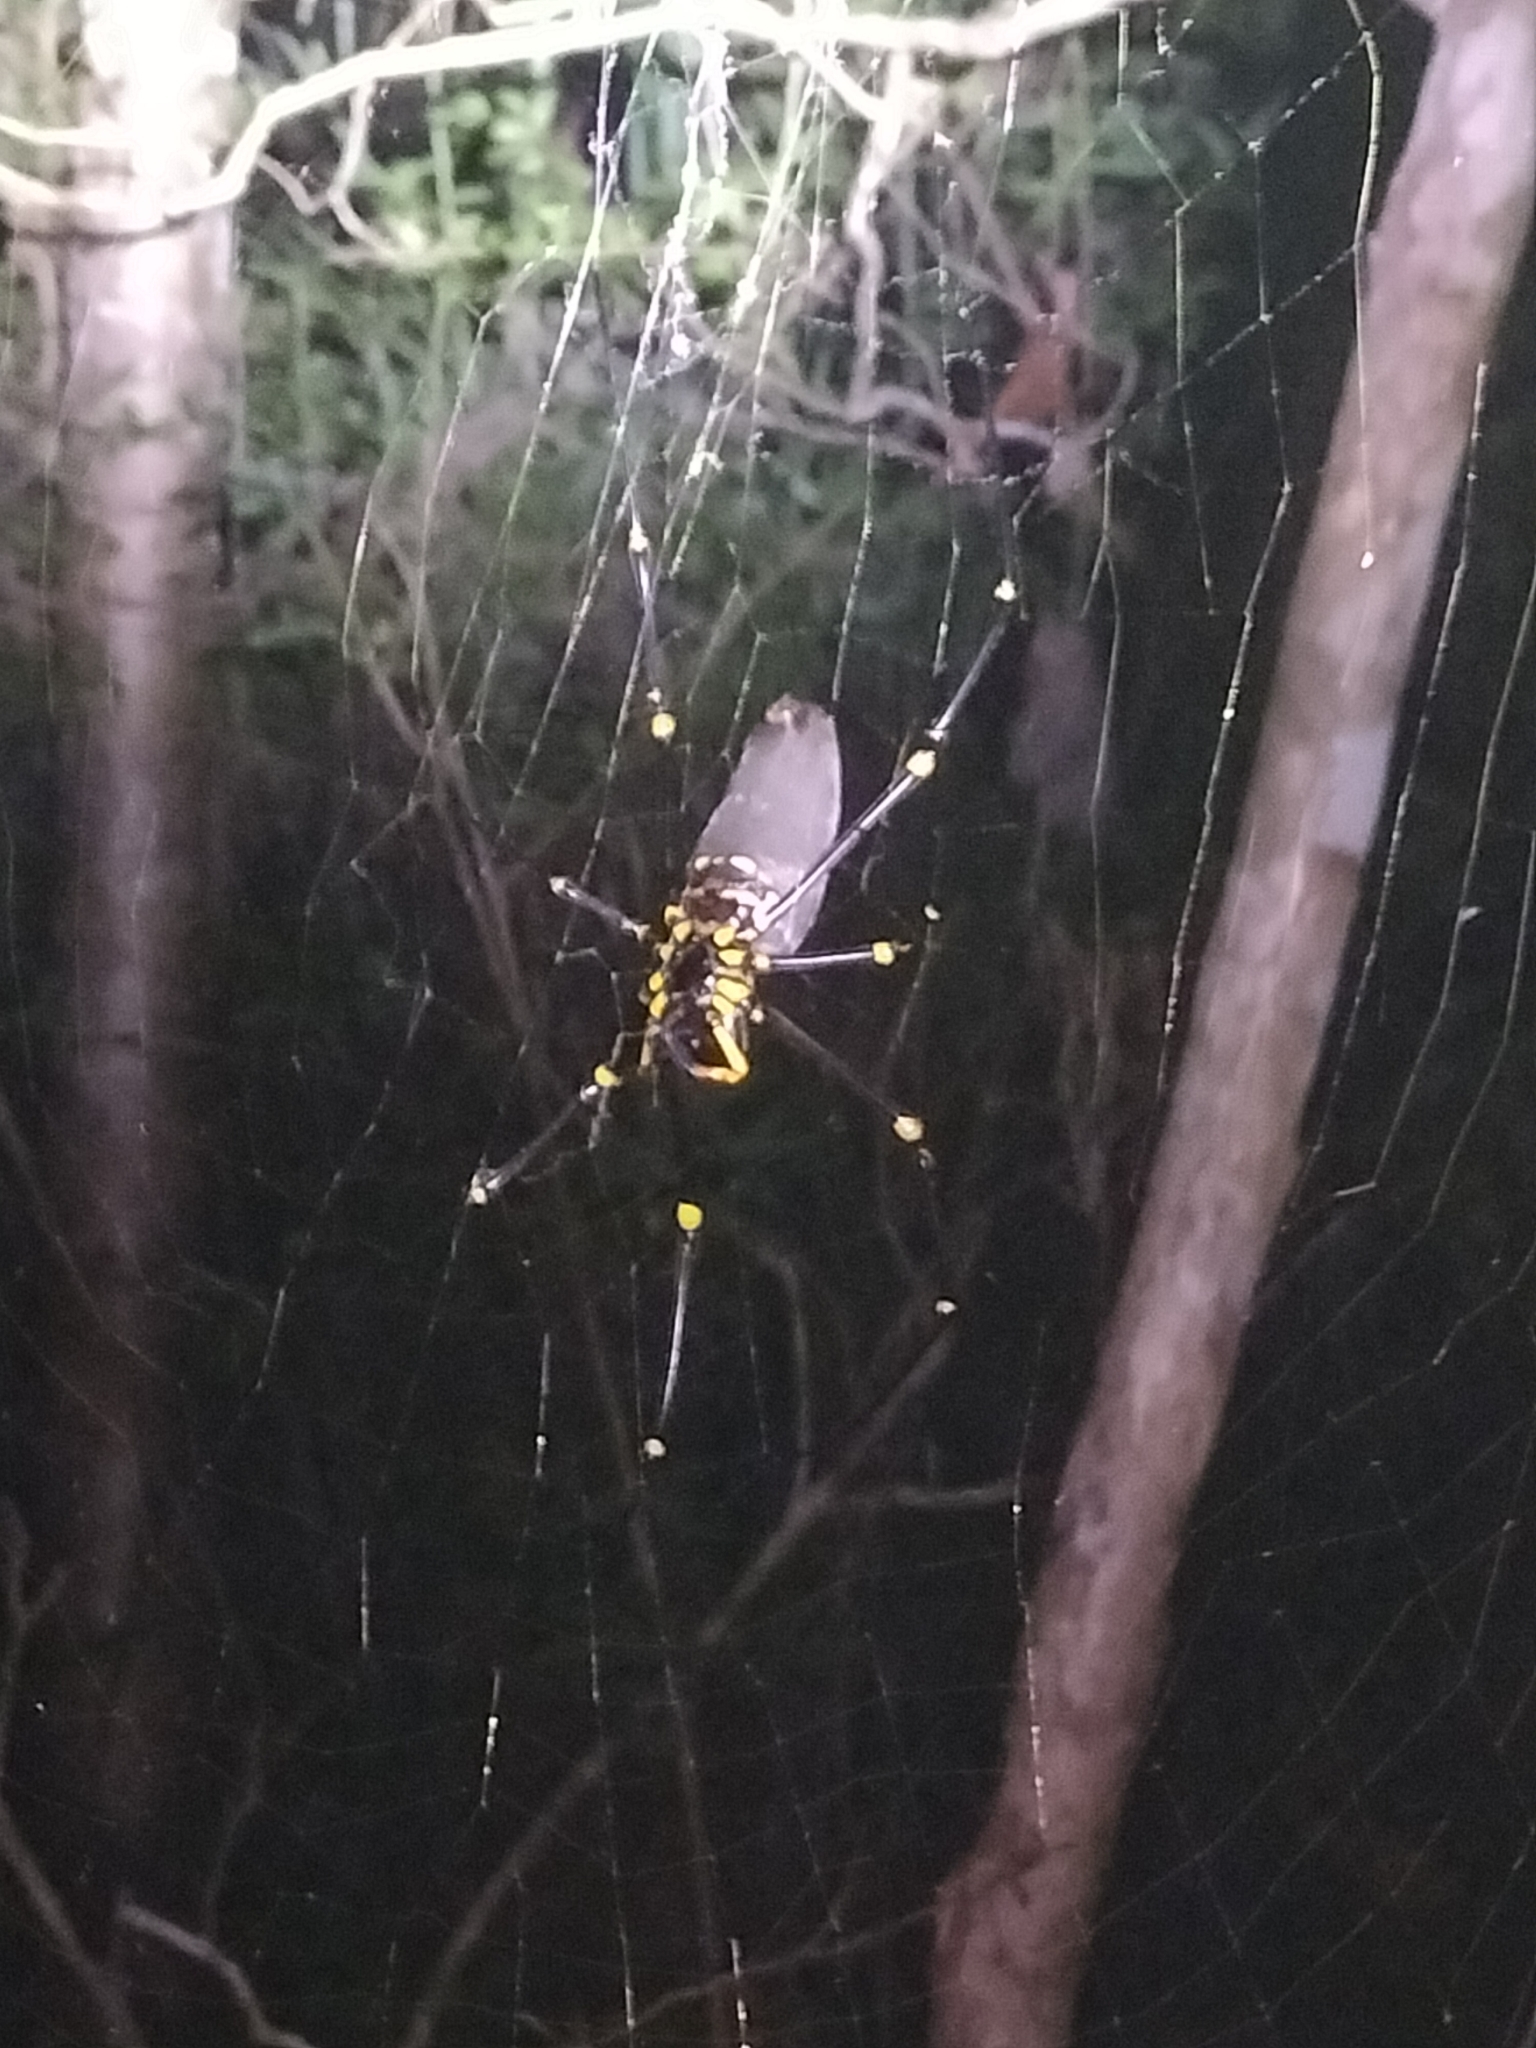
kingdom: Animalia
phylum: Arthropoda
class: Arachnida
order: Araneae
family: Araneidae
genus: Nephila
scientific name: Nephila pilipes
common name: Giant golden orb weaver
